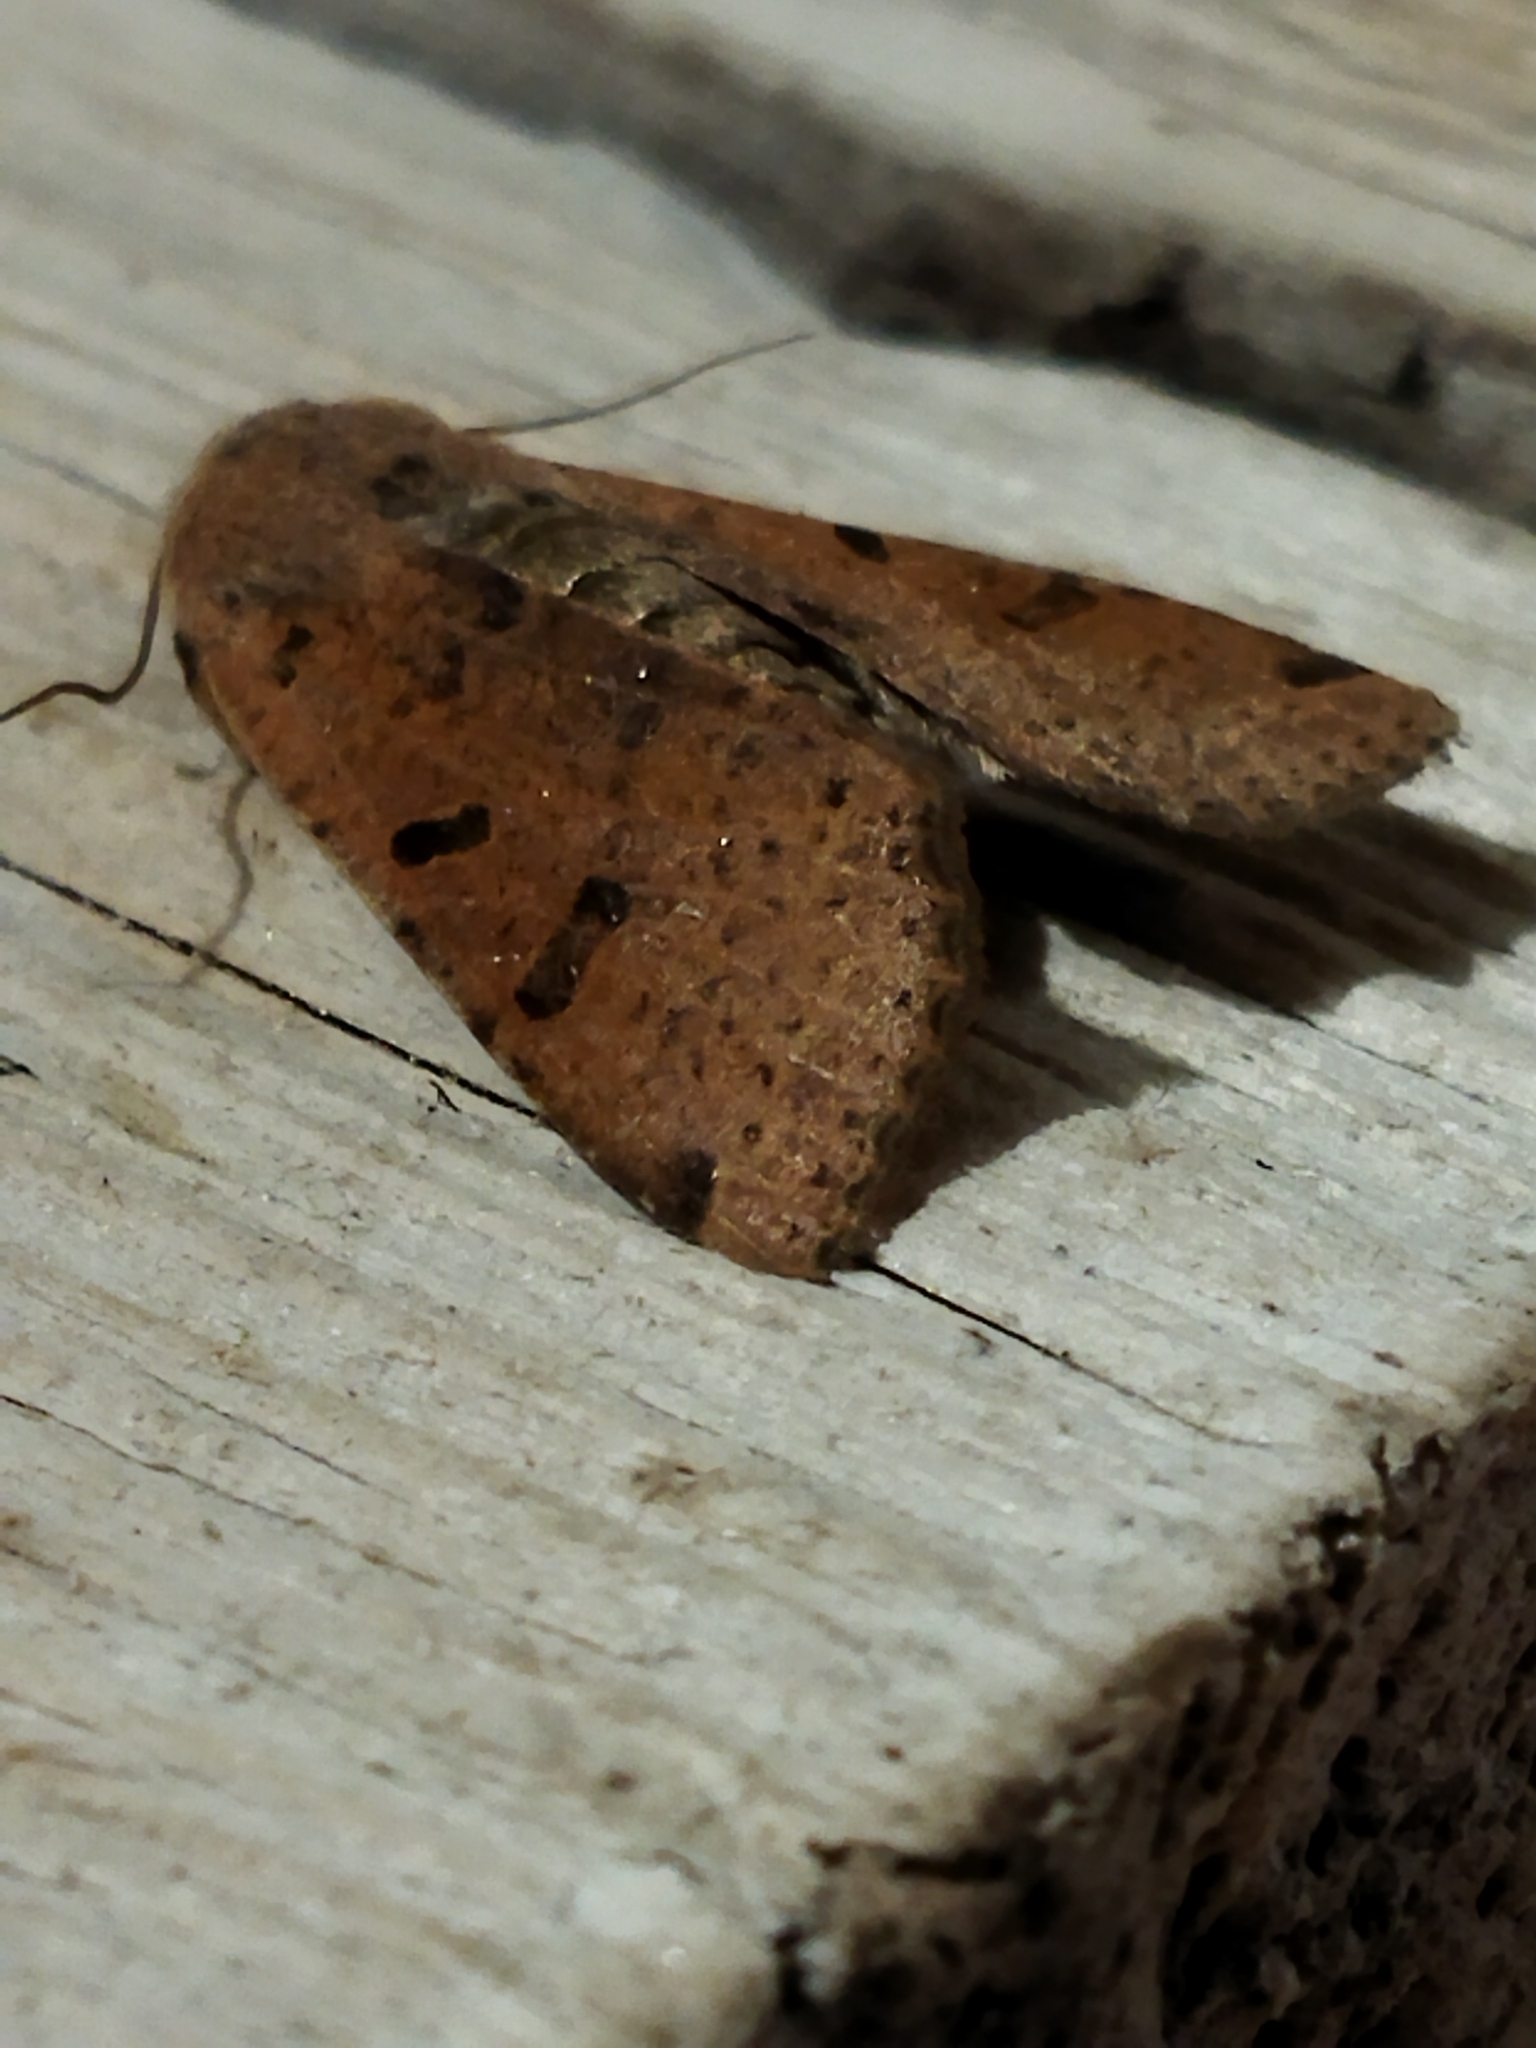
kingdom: Animalia
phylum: Arthropoda
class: Insecta
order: Lepidoptera
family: Noctuidae
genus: Agrochola
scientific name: Agrochola lychnidis
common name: Beaded chestnut
